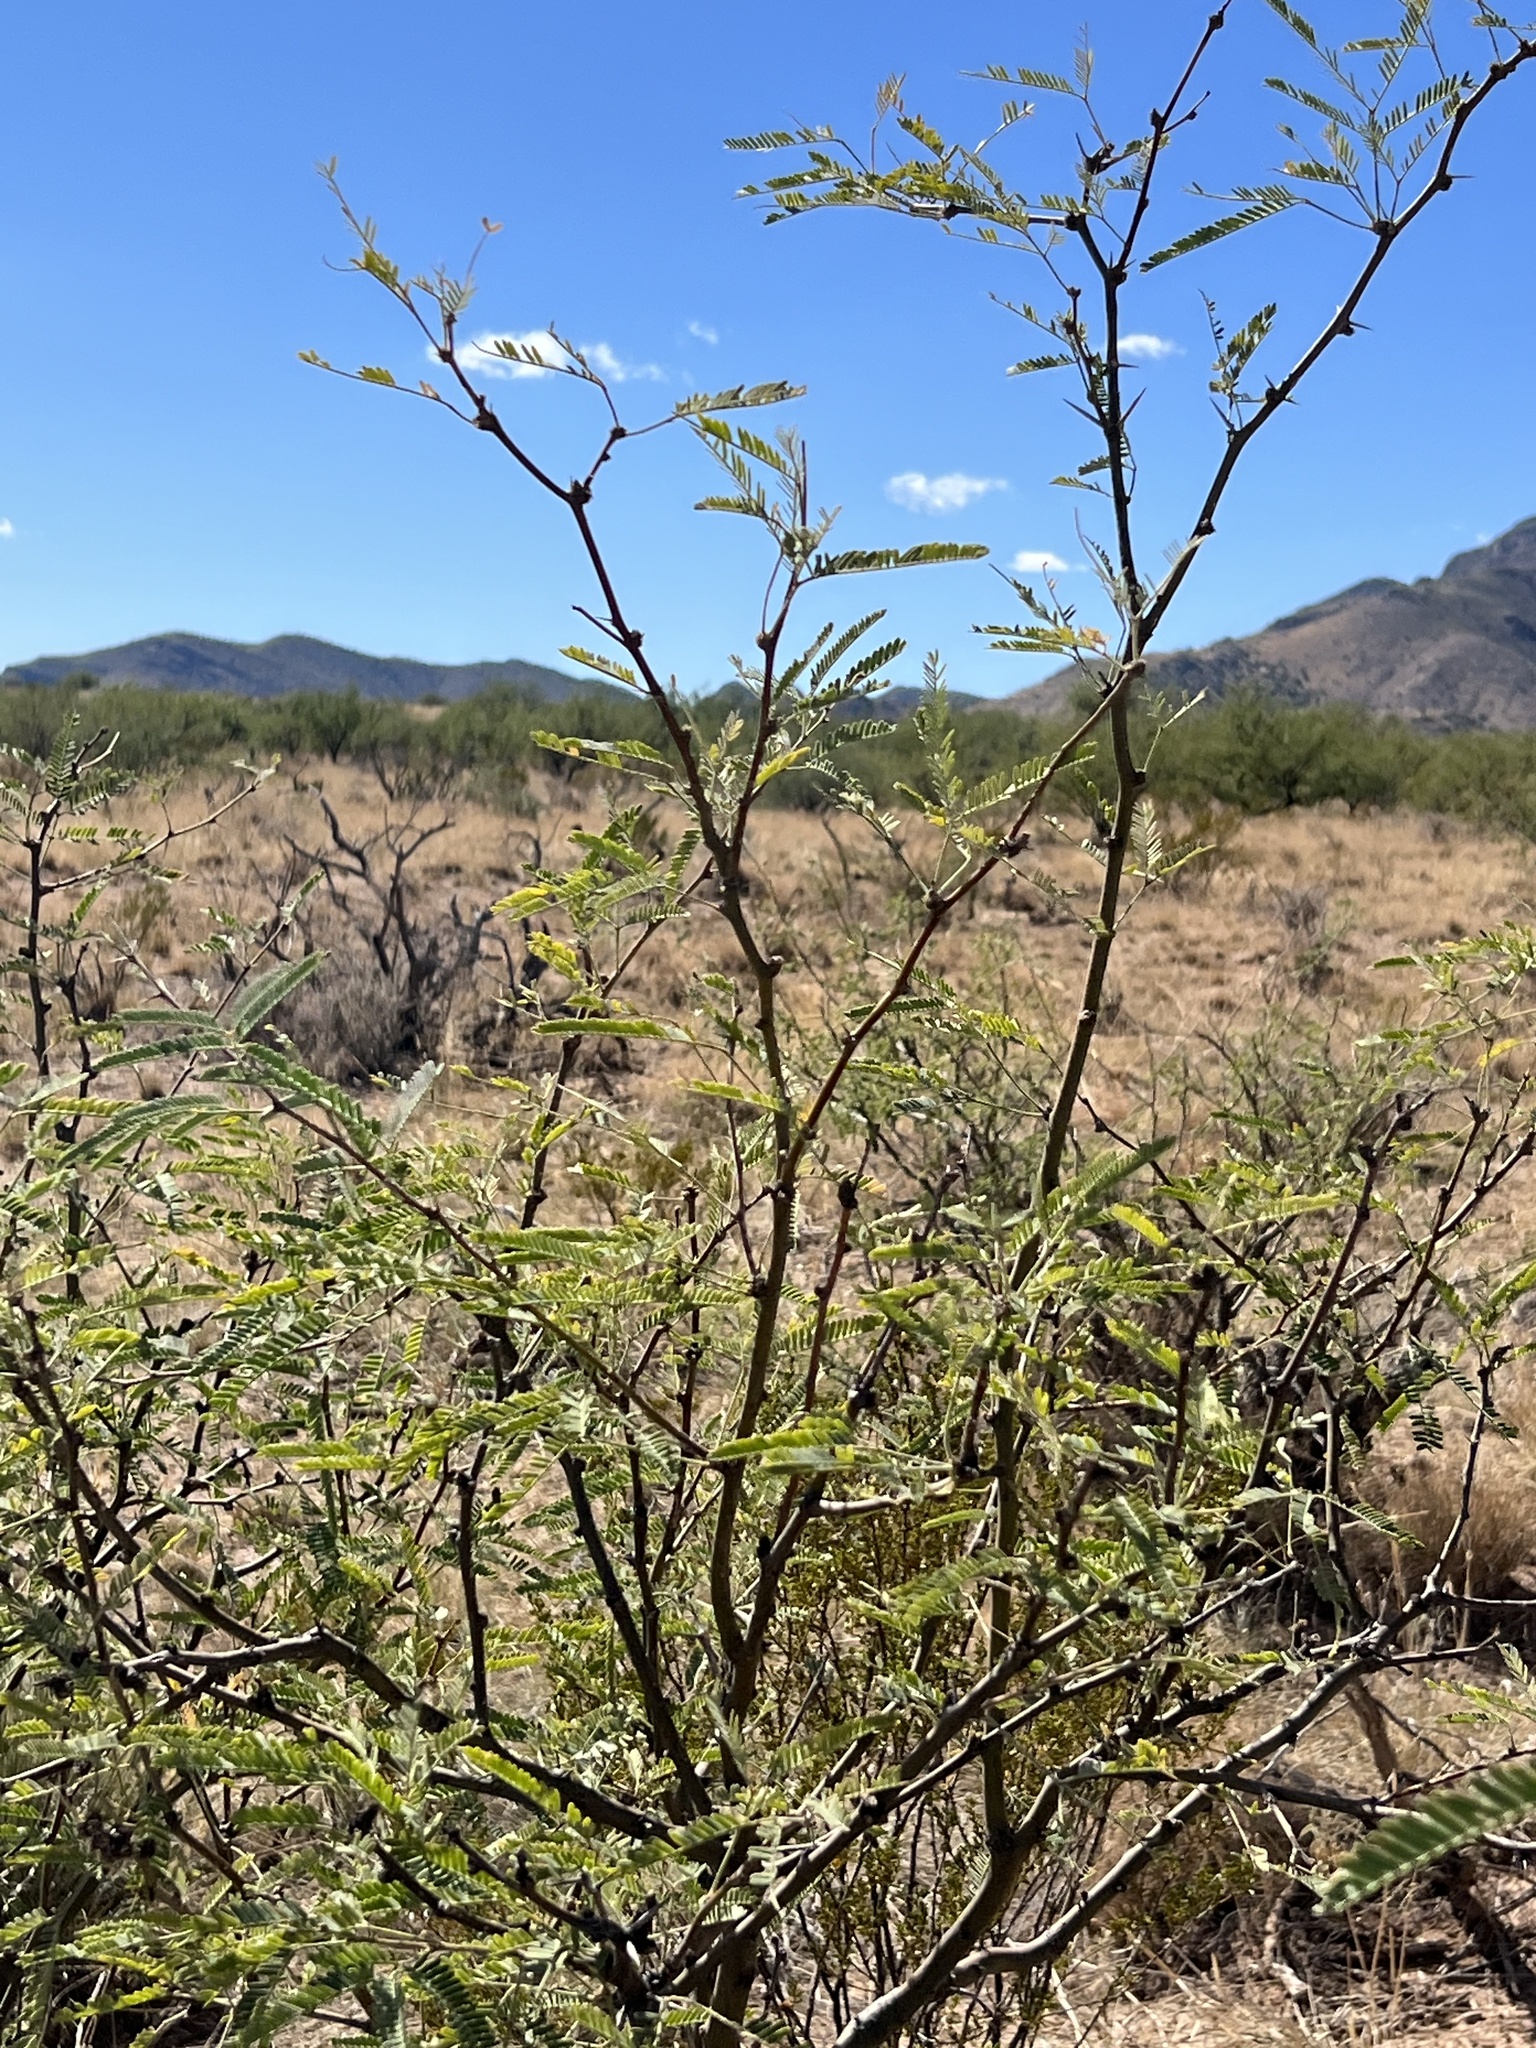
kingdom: Plantae
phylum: Tracheophyta
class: Magnoliopsida
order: Fabales
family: Fabaceae
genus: Prosopis
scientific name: Prosopis velutina
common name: Velvet mesquite
